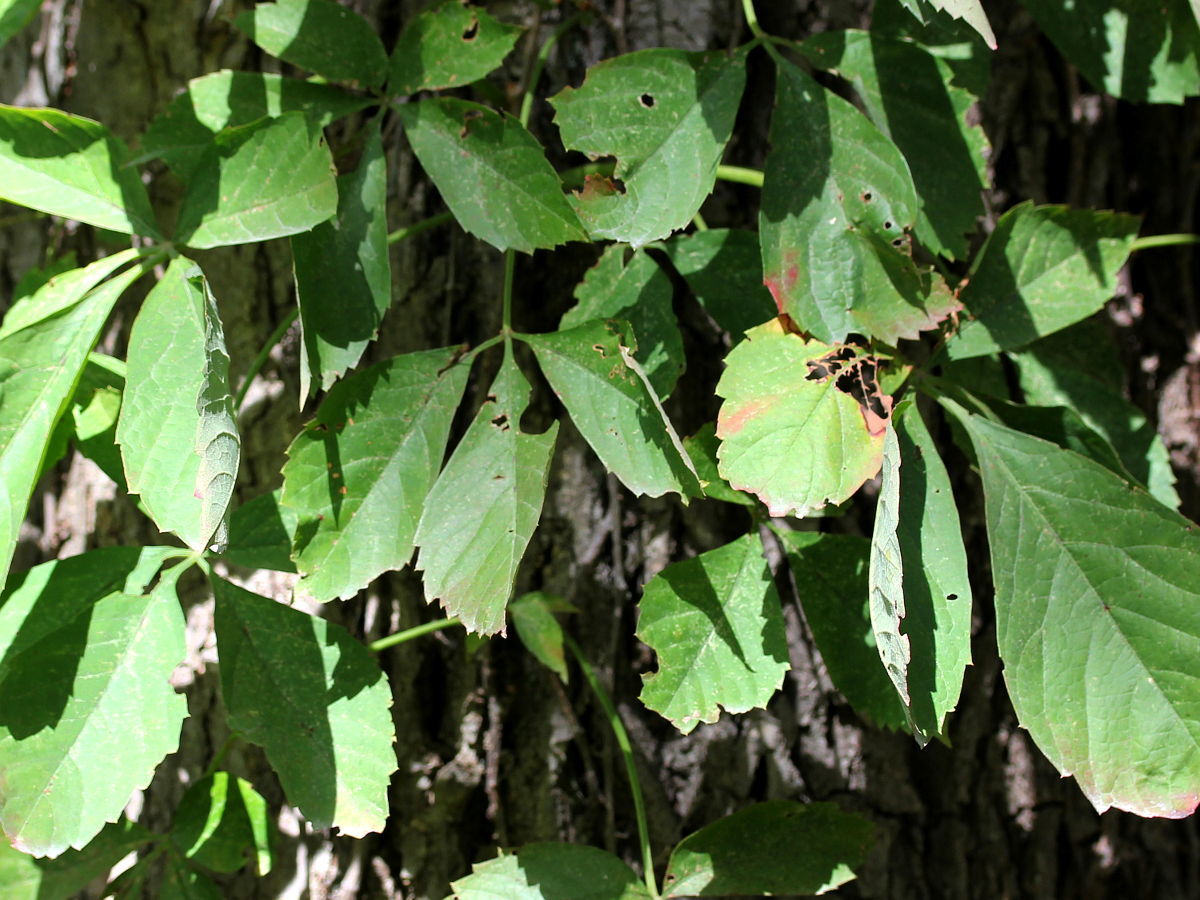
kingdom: Plantae
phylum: Tracheophyta
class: Magnoliopsida
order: Vitales
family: Vitaceae
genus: Parthenocissus
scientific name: Parthenocissus quinquefolia
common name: Virginia-creeper
